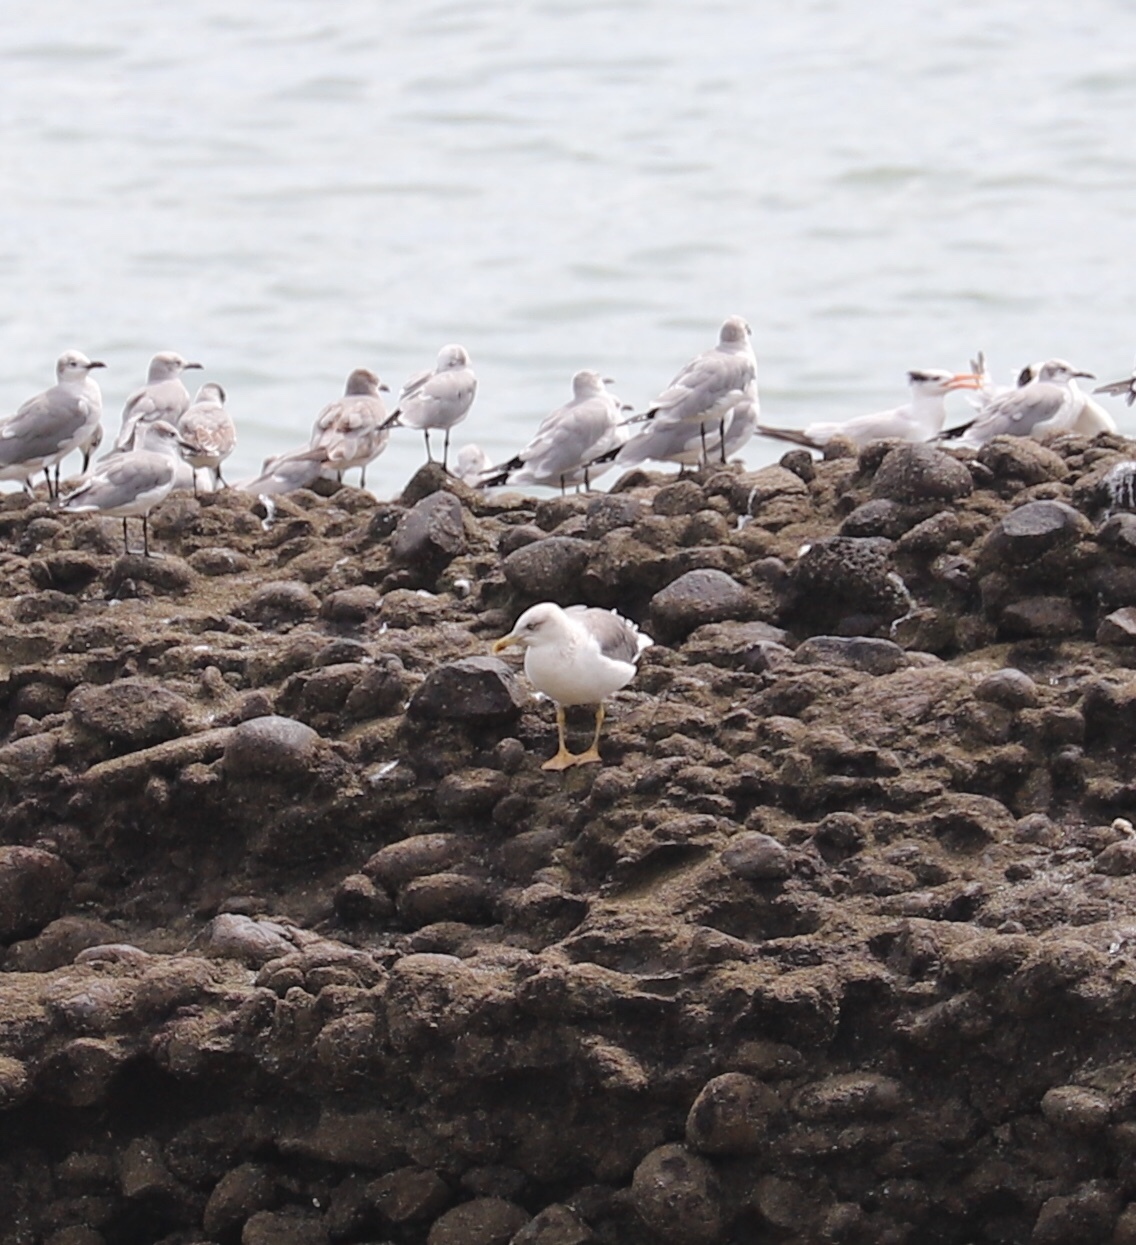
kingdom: Animalia
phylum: Chordata
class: Aves
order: Charadriiformes
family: Laridae
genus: Larus
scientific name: Larus fuscus
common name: Lesser black-backed gull
